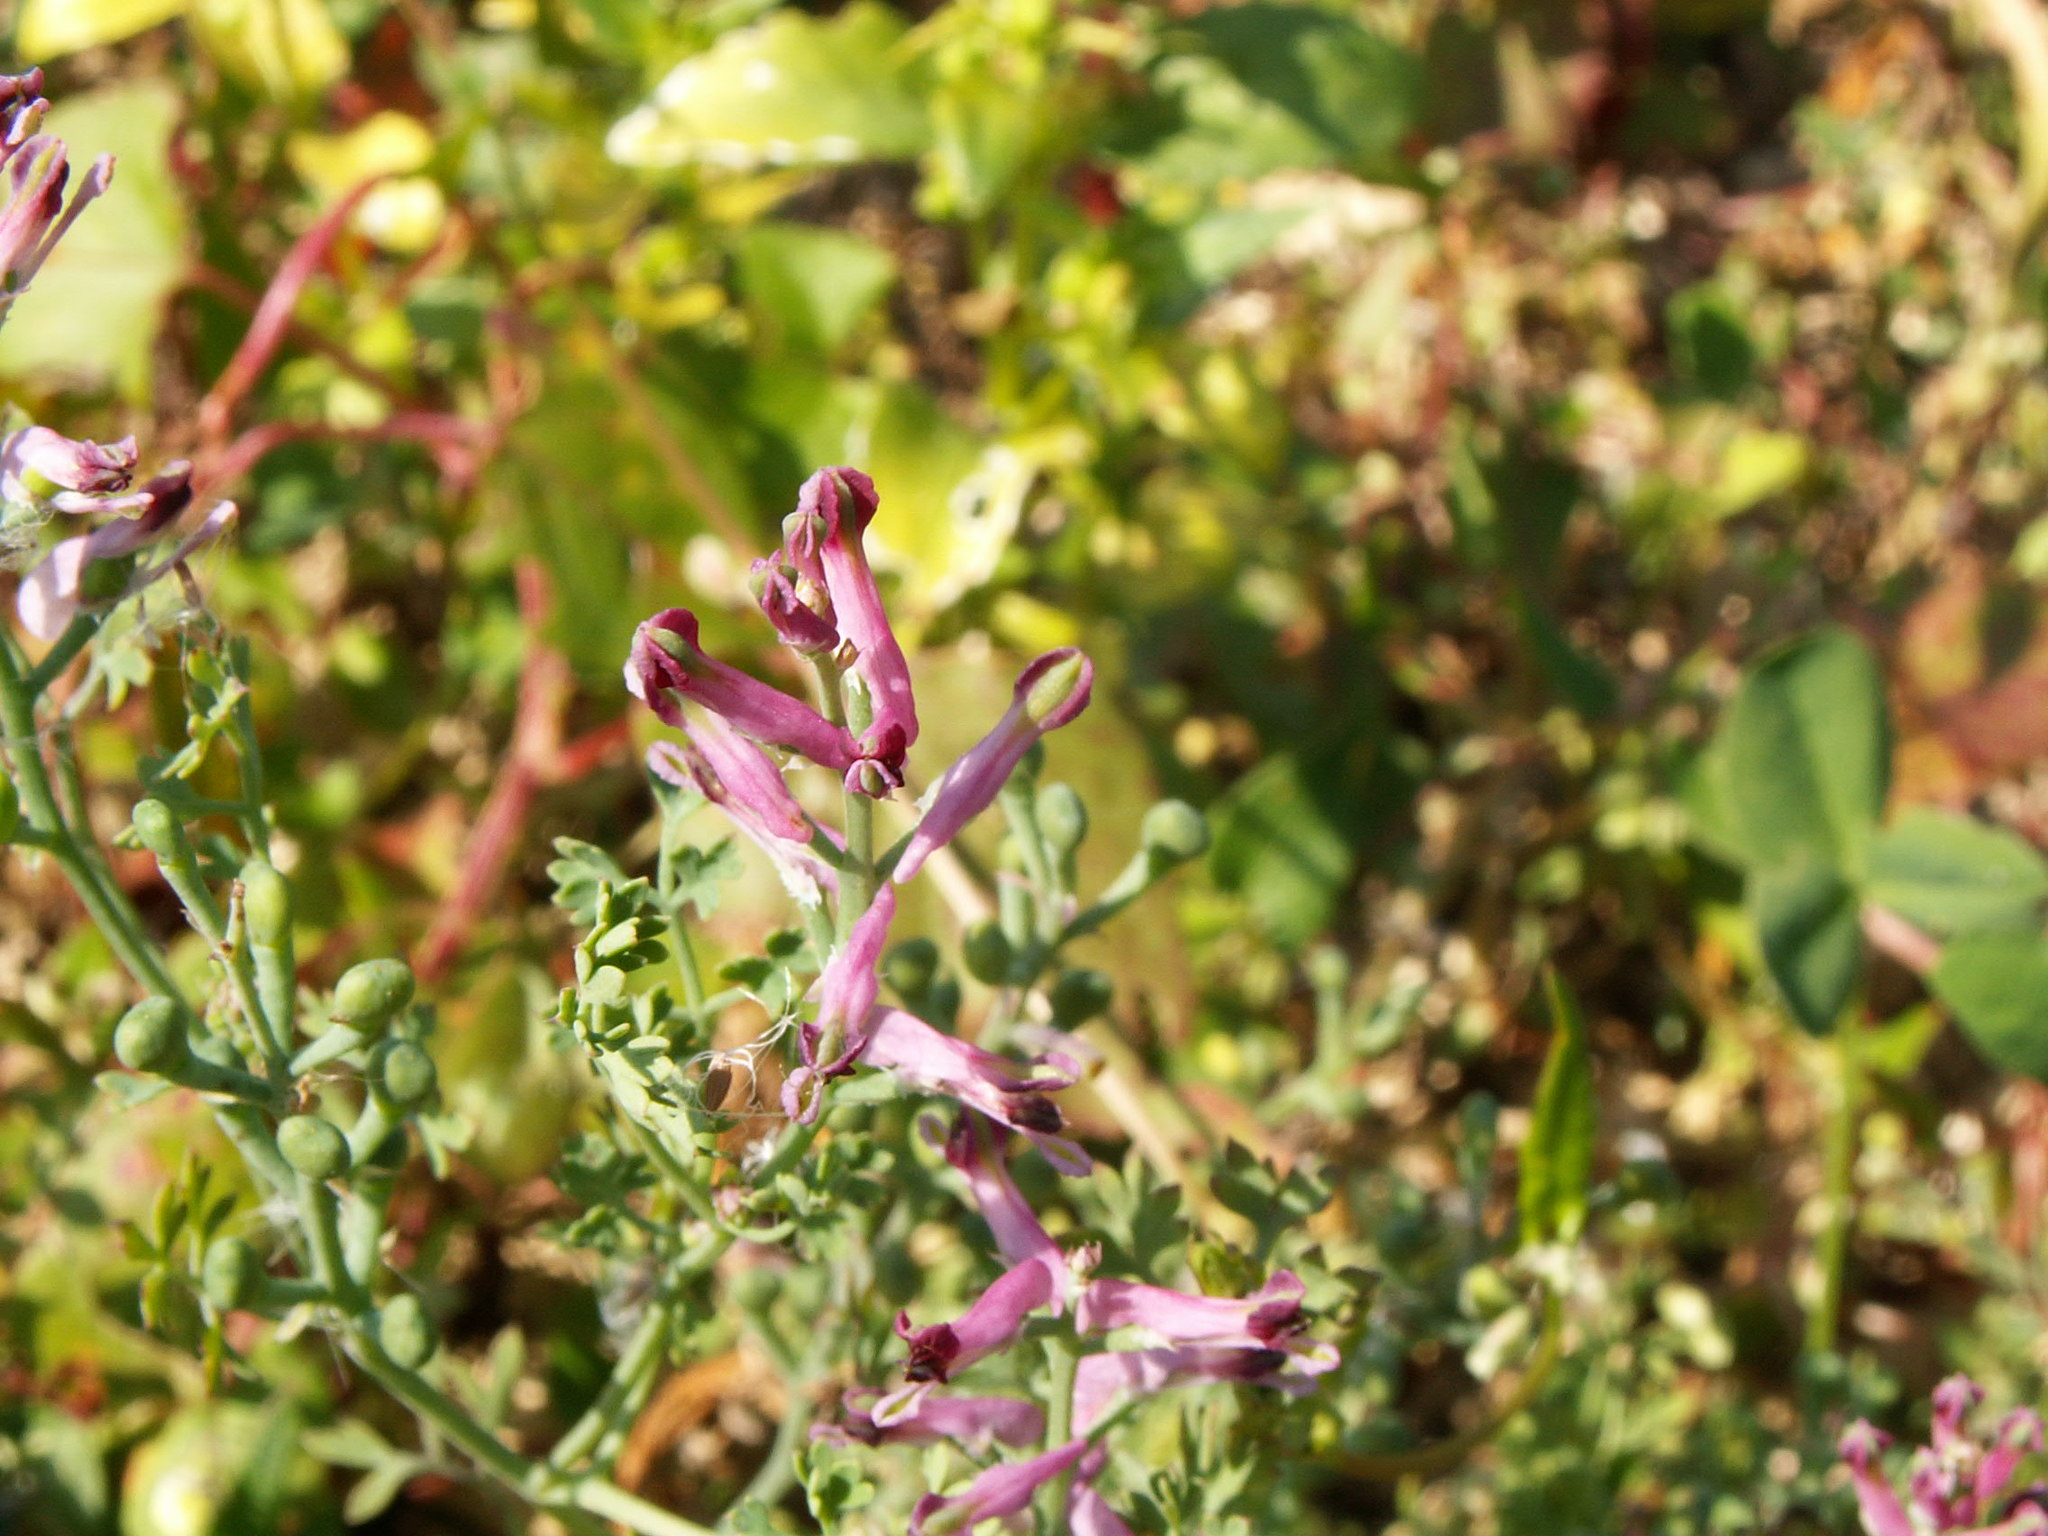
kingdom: Plantae
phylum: Tracheophyta
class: Magnoliopsida
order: Ranunculales
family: Papaveraceae
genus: Fumaria
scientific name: Fumaria officinalis
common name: Common fumitory
